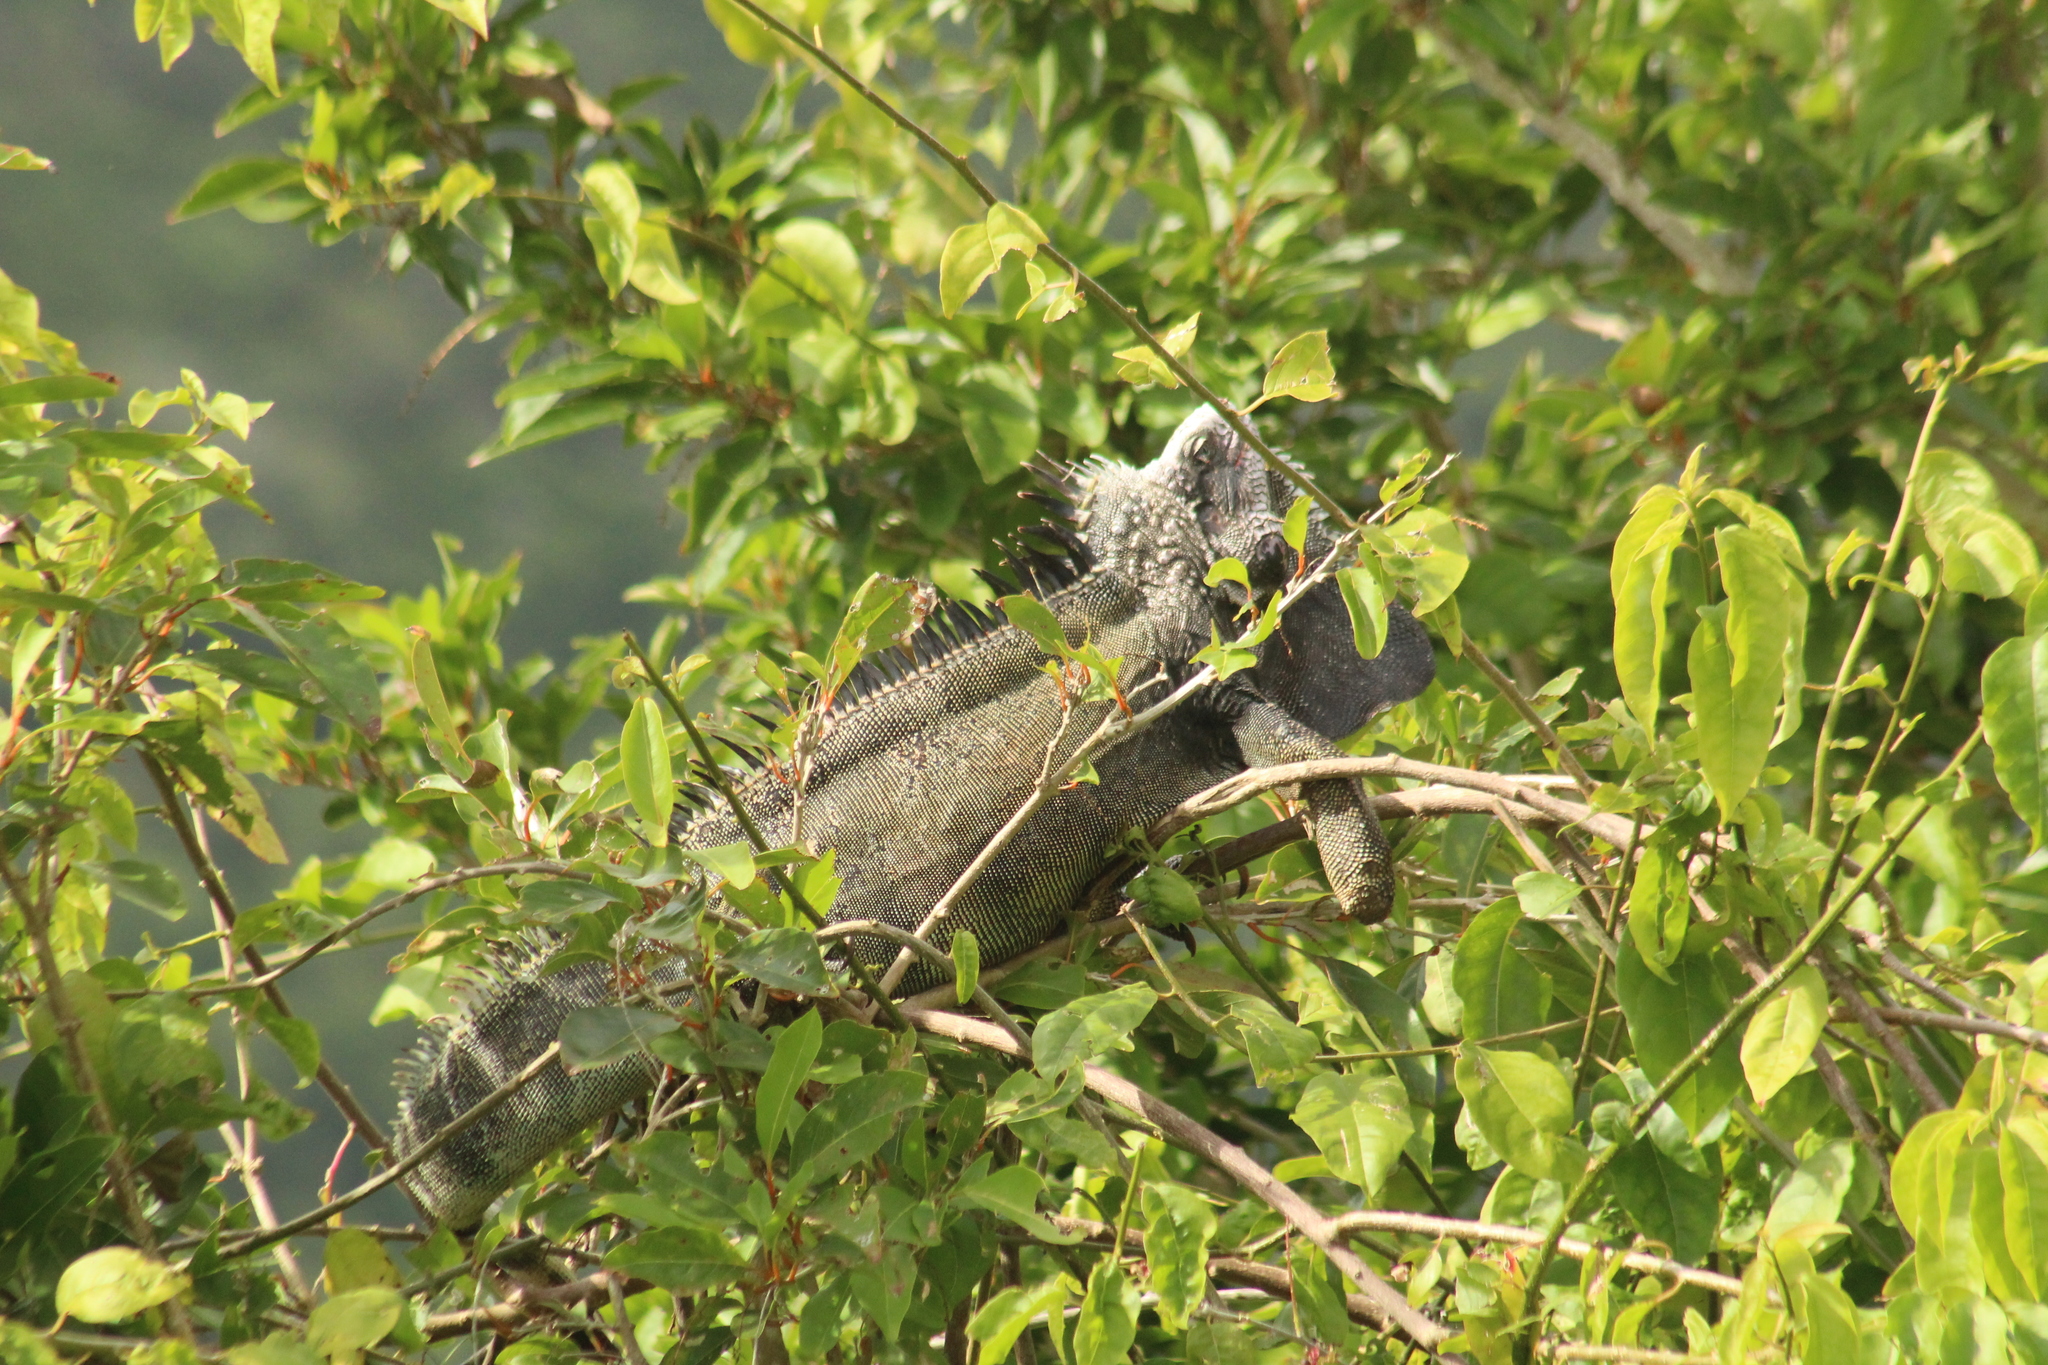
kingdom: Animalia
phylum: Chordata
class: Squamata
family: Iguanidae
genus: Iguana
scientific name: Iguana iguana
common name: Green iguana
